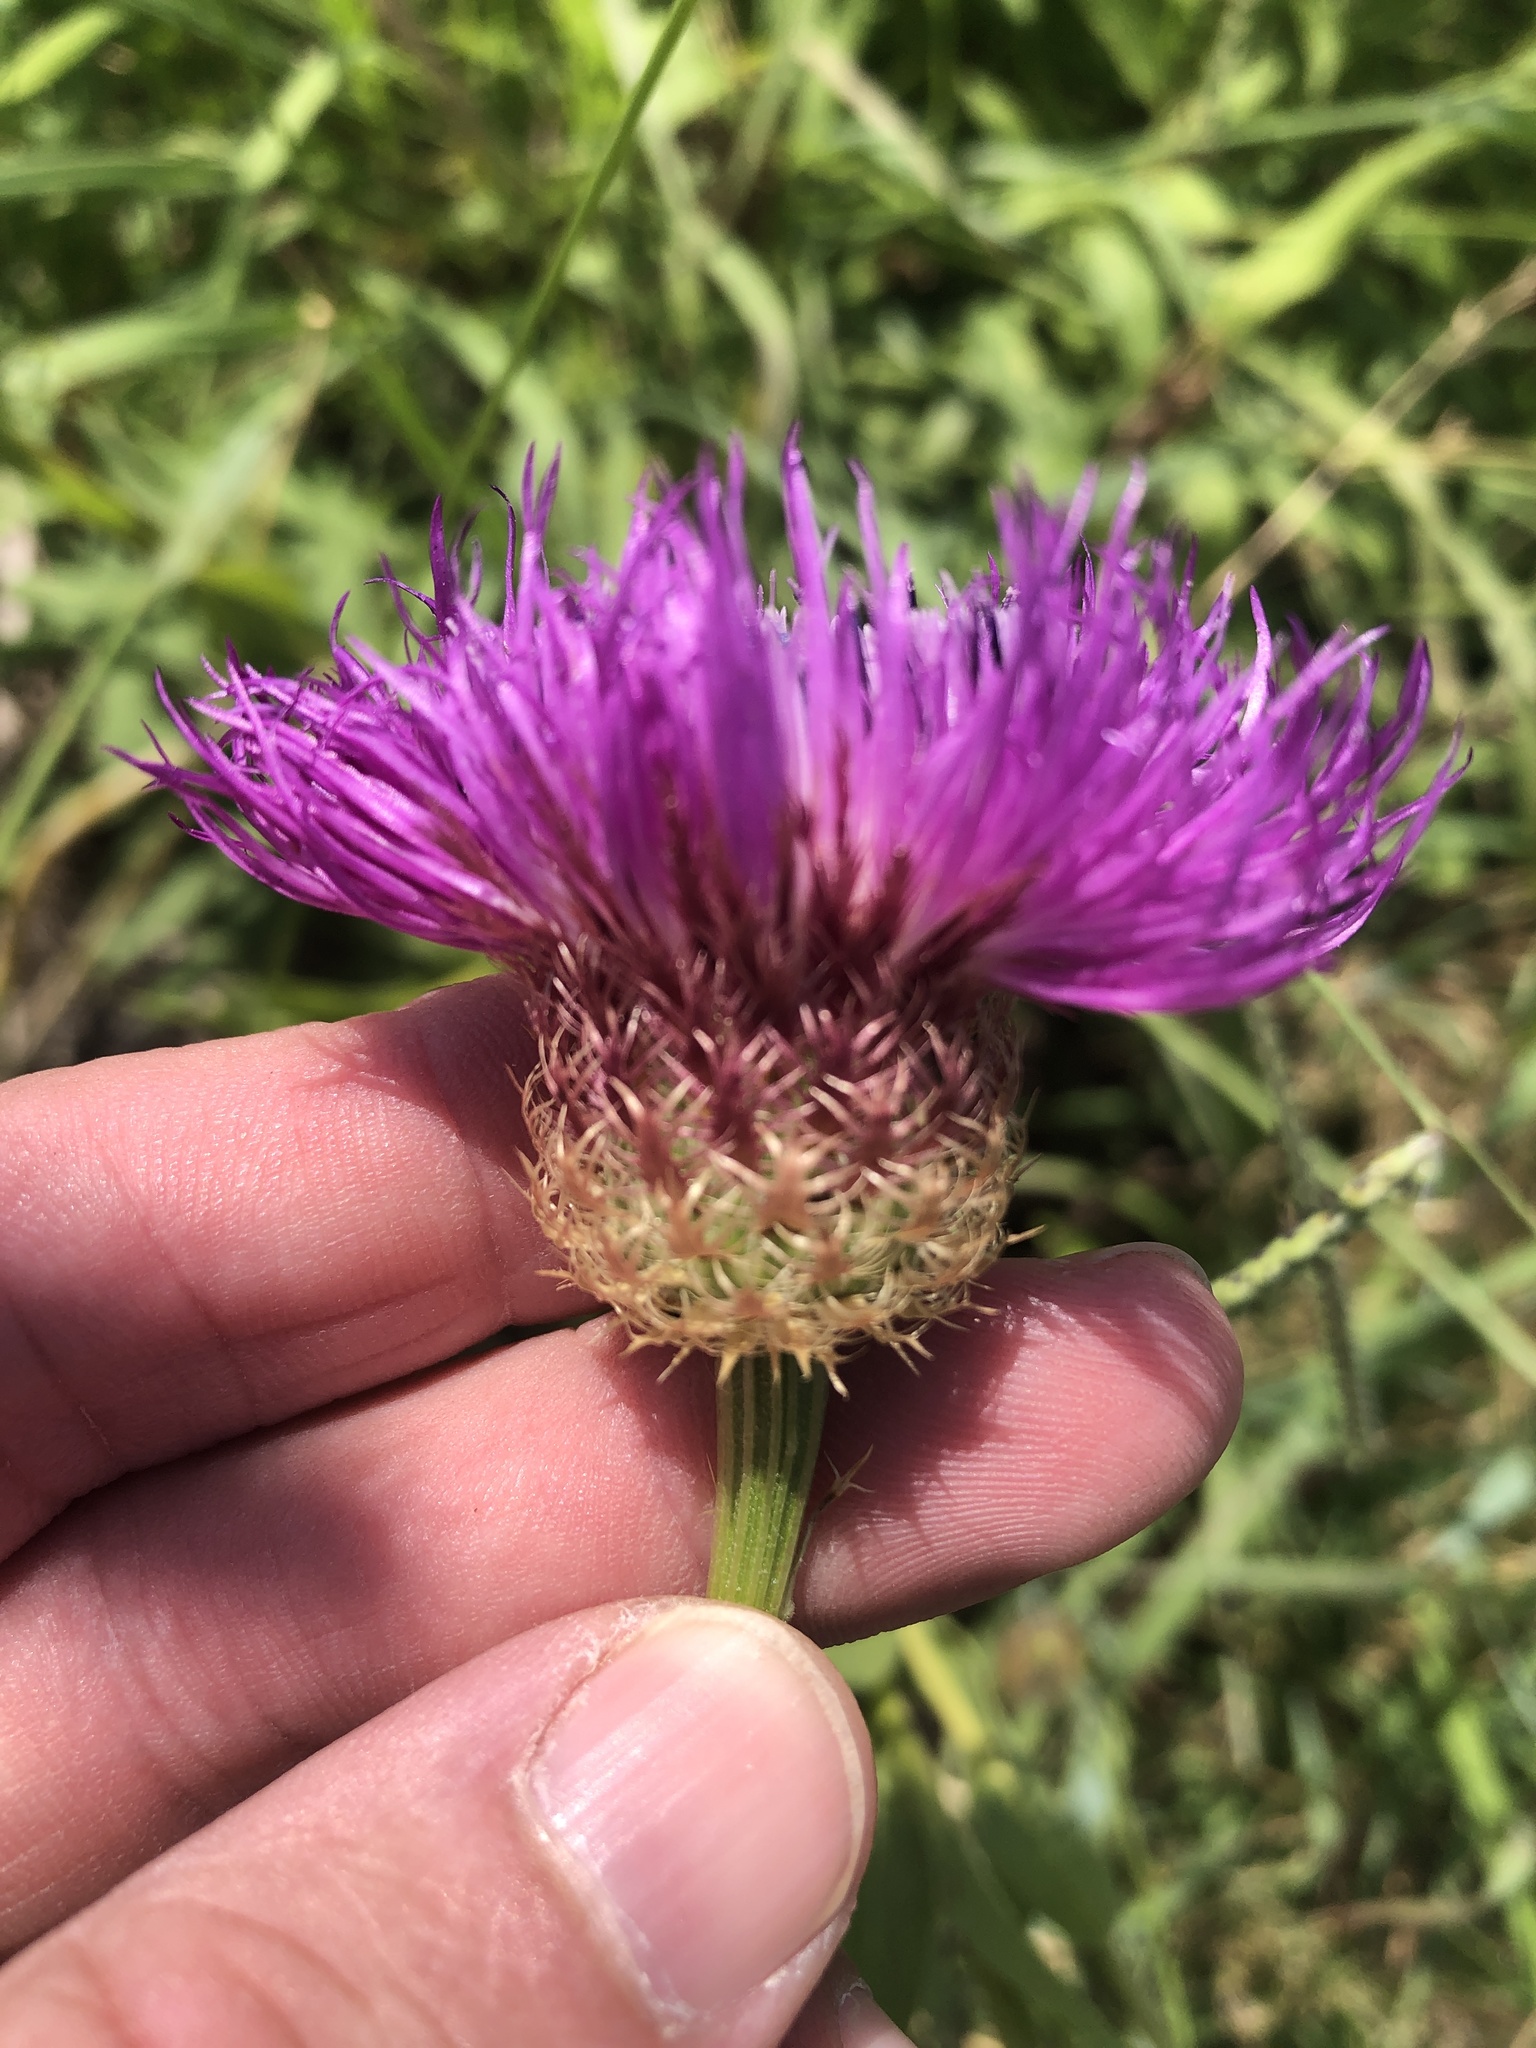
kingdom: Plantae
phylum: Tracheophyta
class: Magnoliopsida
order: Asterales
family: Asteraceae
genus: Plectocephalus
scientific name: Plectocephalus americanus
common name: American basket-flower
